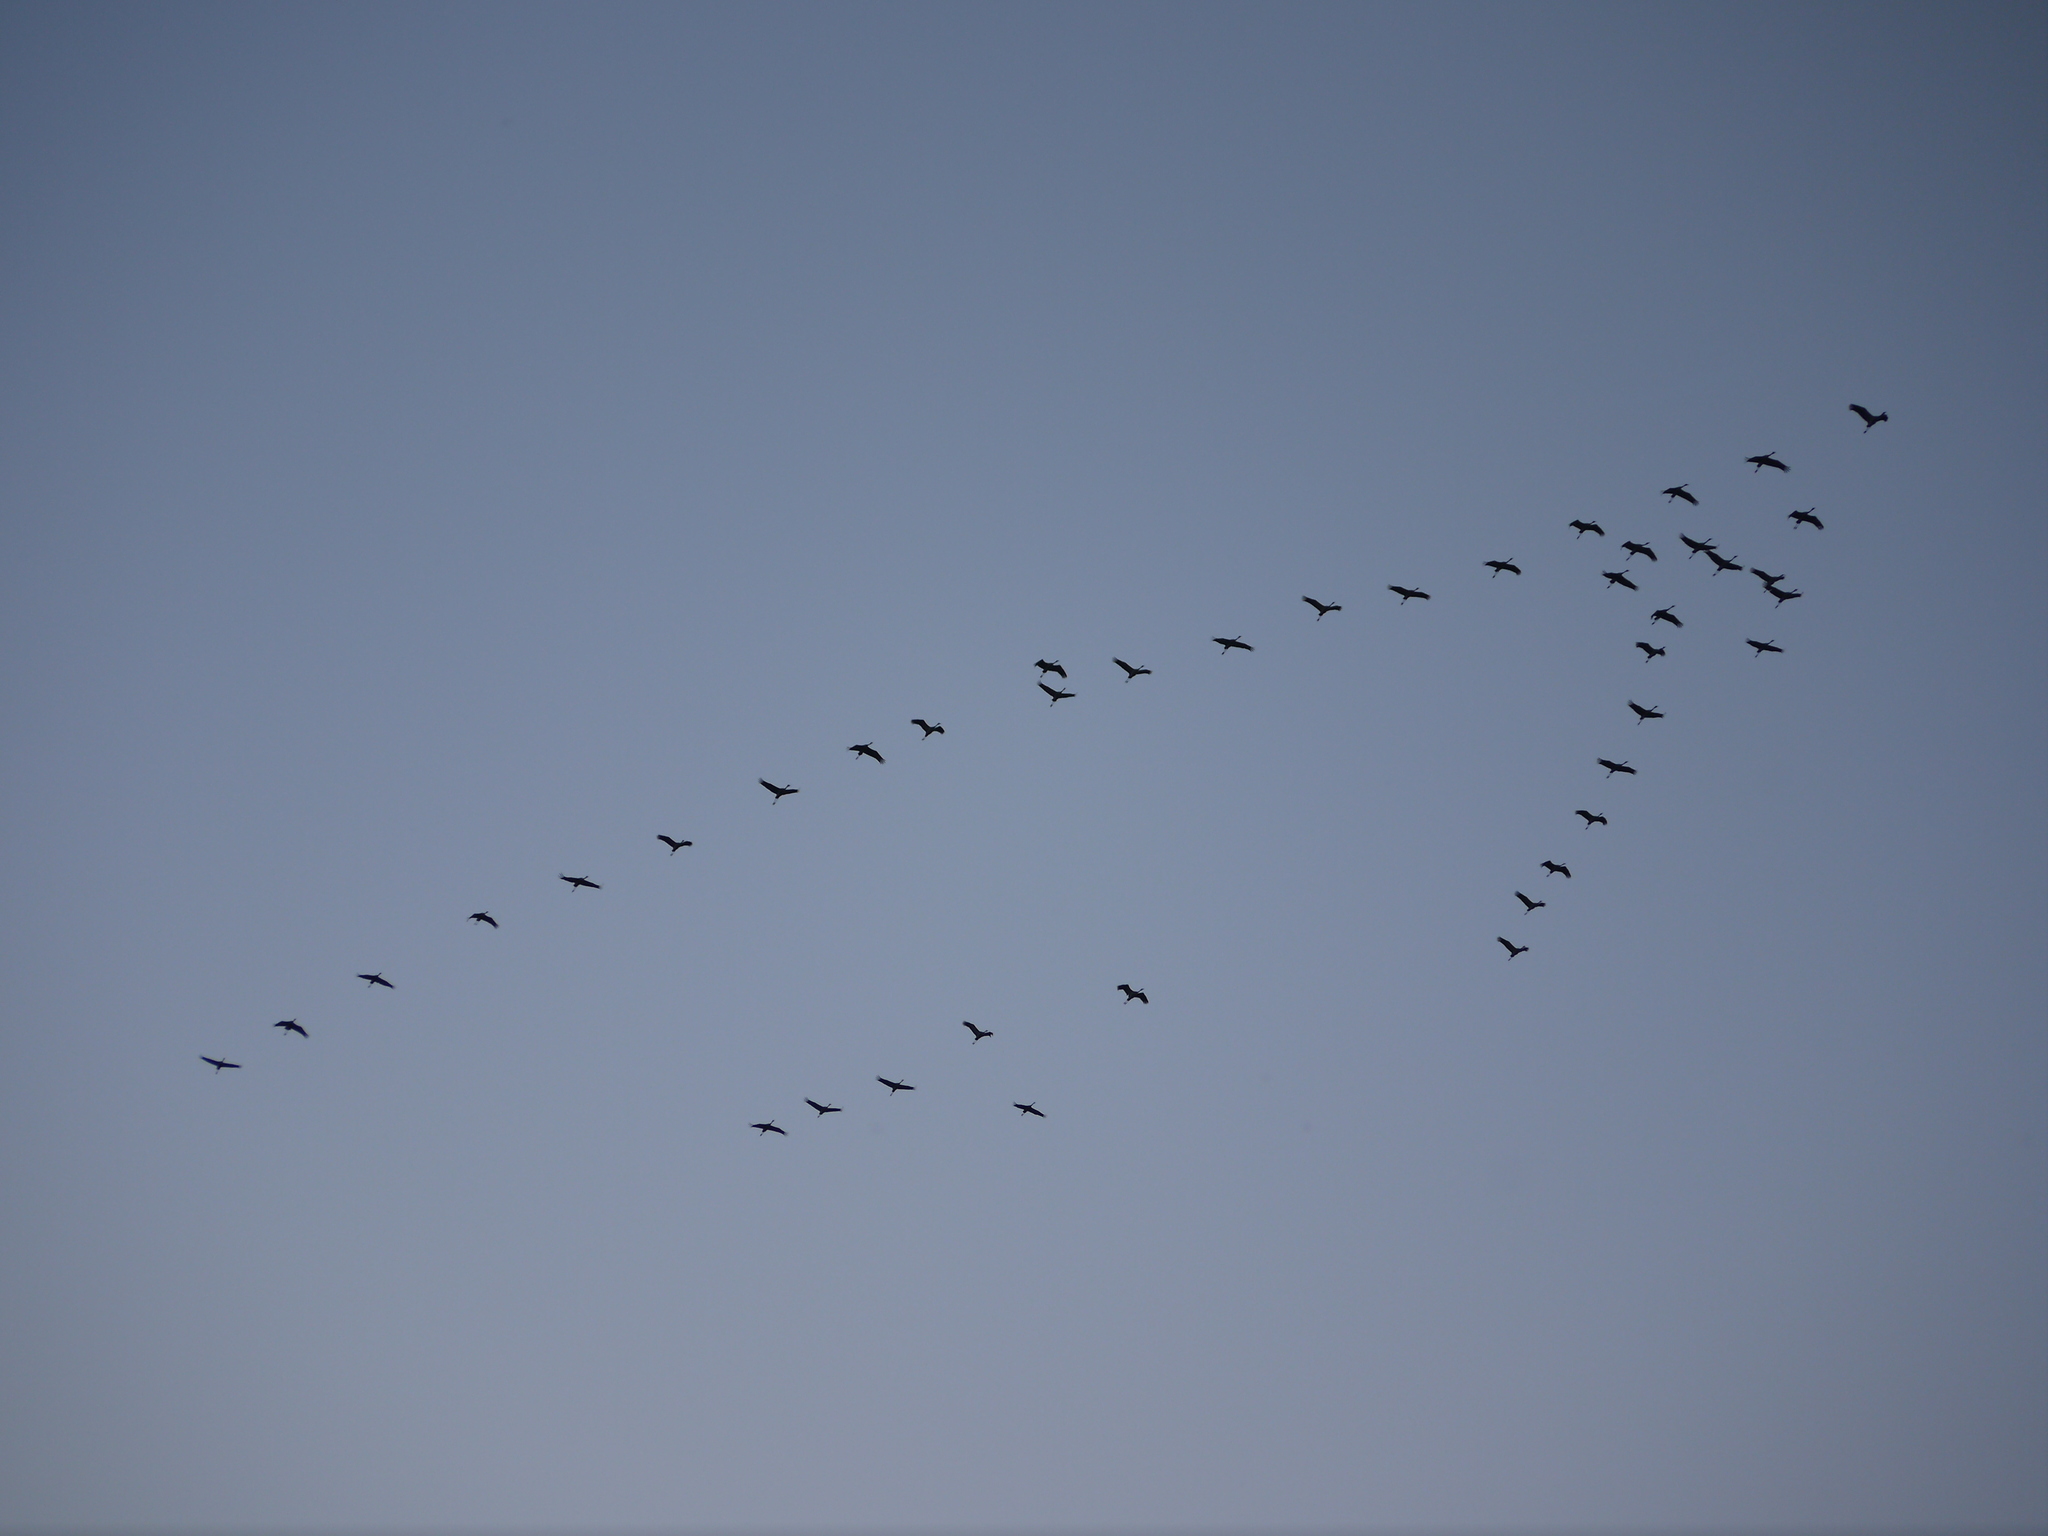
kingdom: Animalia
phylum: Chordata
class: Aves
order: Gruiformes
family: Gruidae
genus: Grus
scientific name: Grus grus
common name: Common crane
